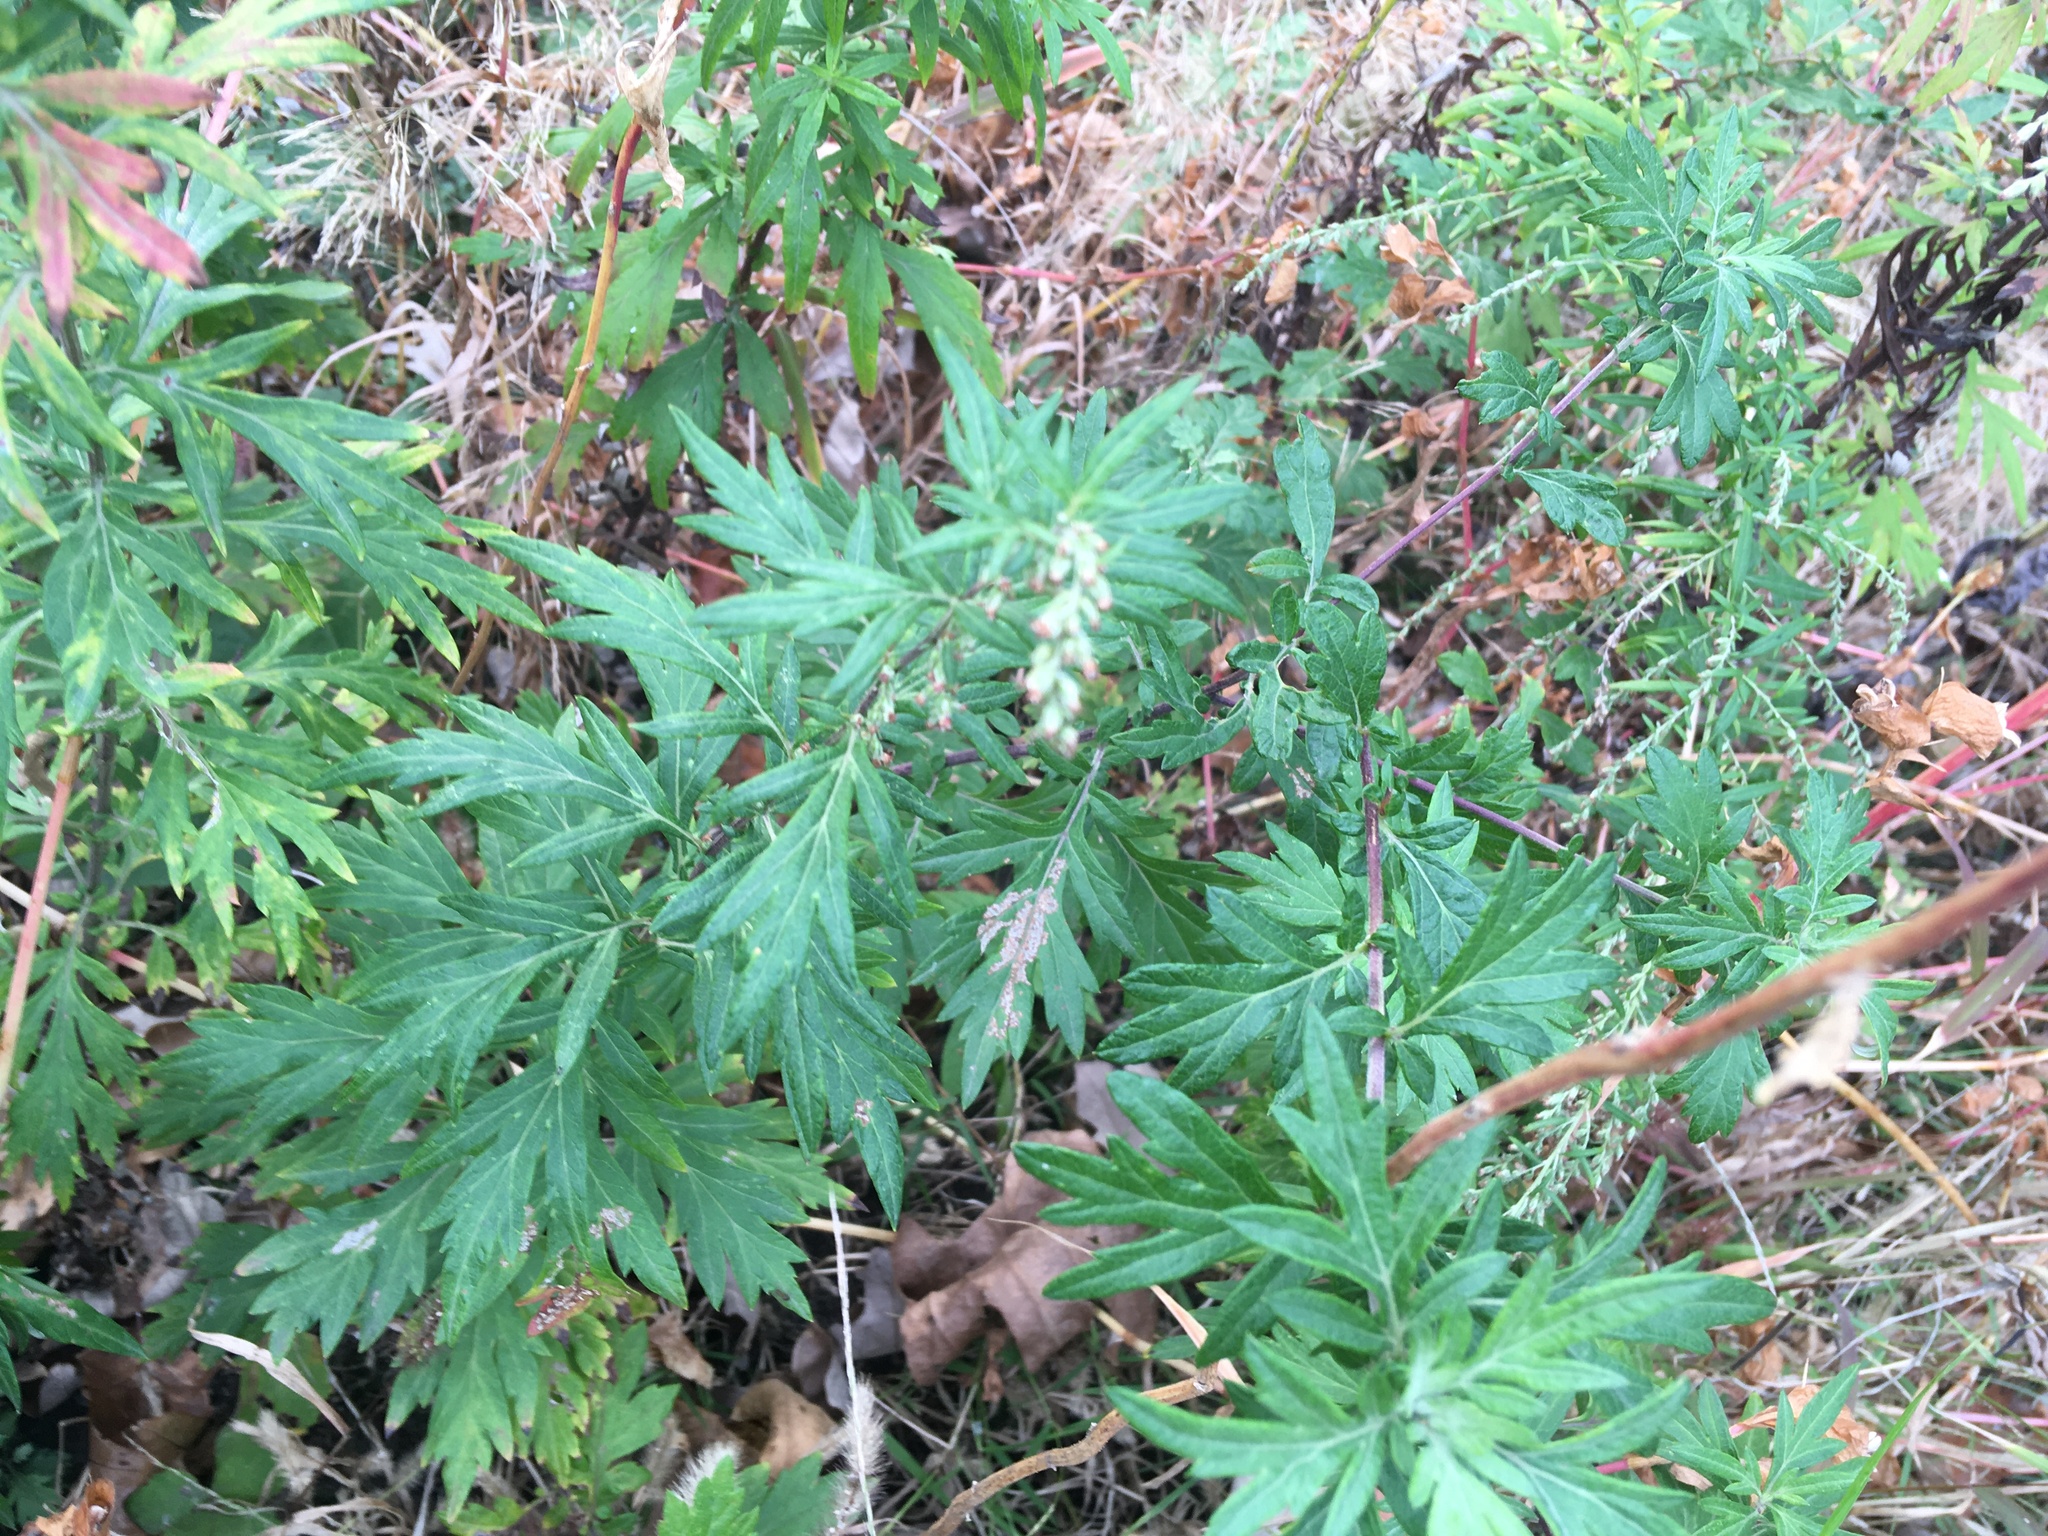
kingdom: Plantae
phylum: Tracheophyta
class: Magnoliopsida
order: Asterales
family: Asteraceae
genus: Artemisia
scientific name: Artemisia vulgaris
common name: Mugwort
